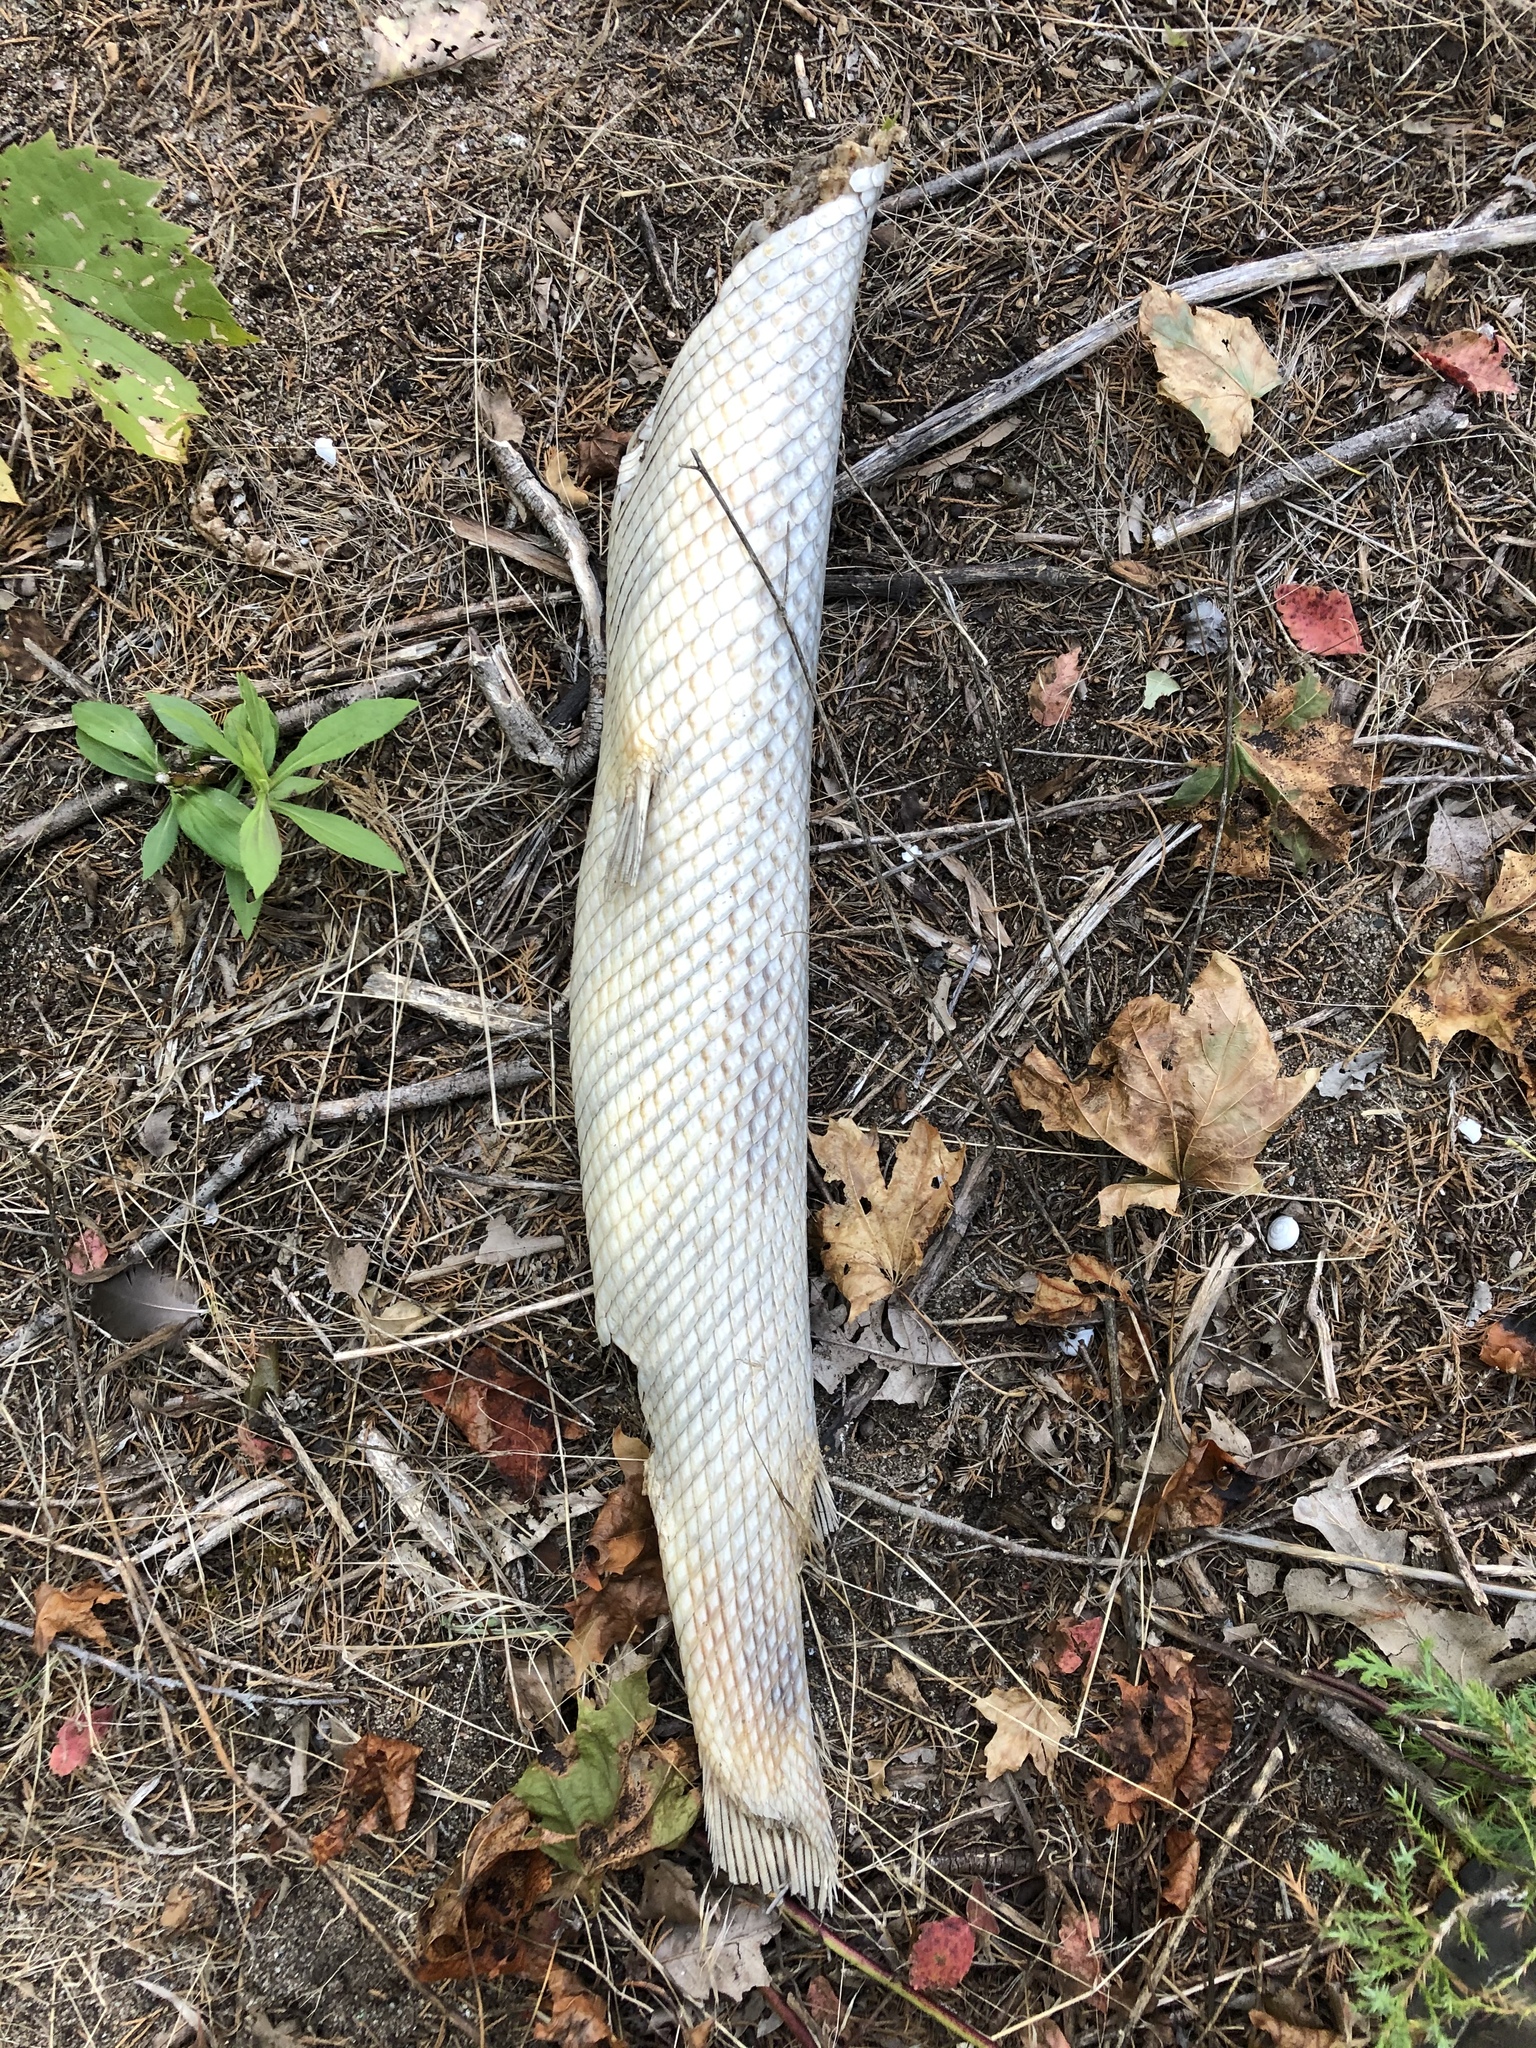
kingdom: Animalia
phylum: Chordata
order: Lepisosteiformes
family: Lepisosteidae
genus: Lepisosteus
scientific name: Lepisosteus osseus
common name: Longnose gar
